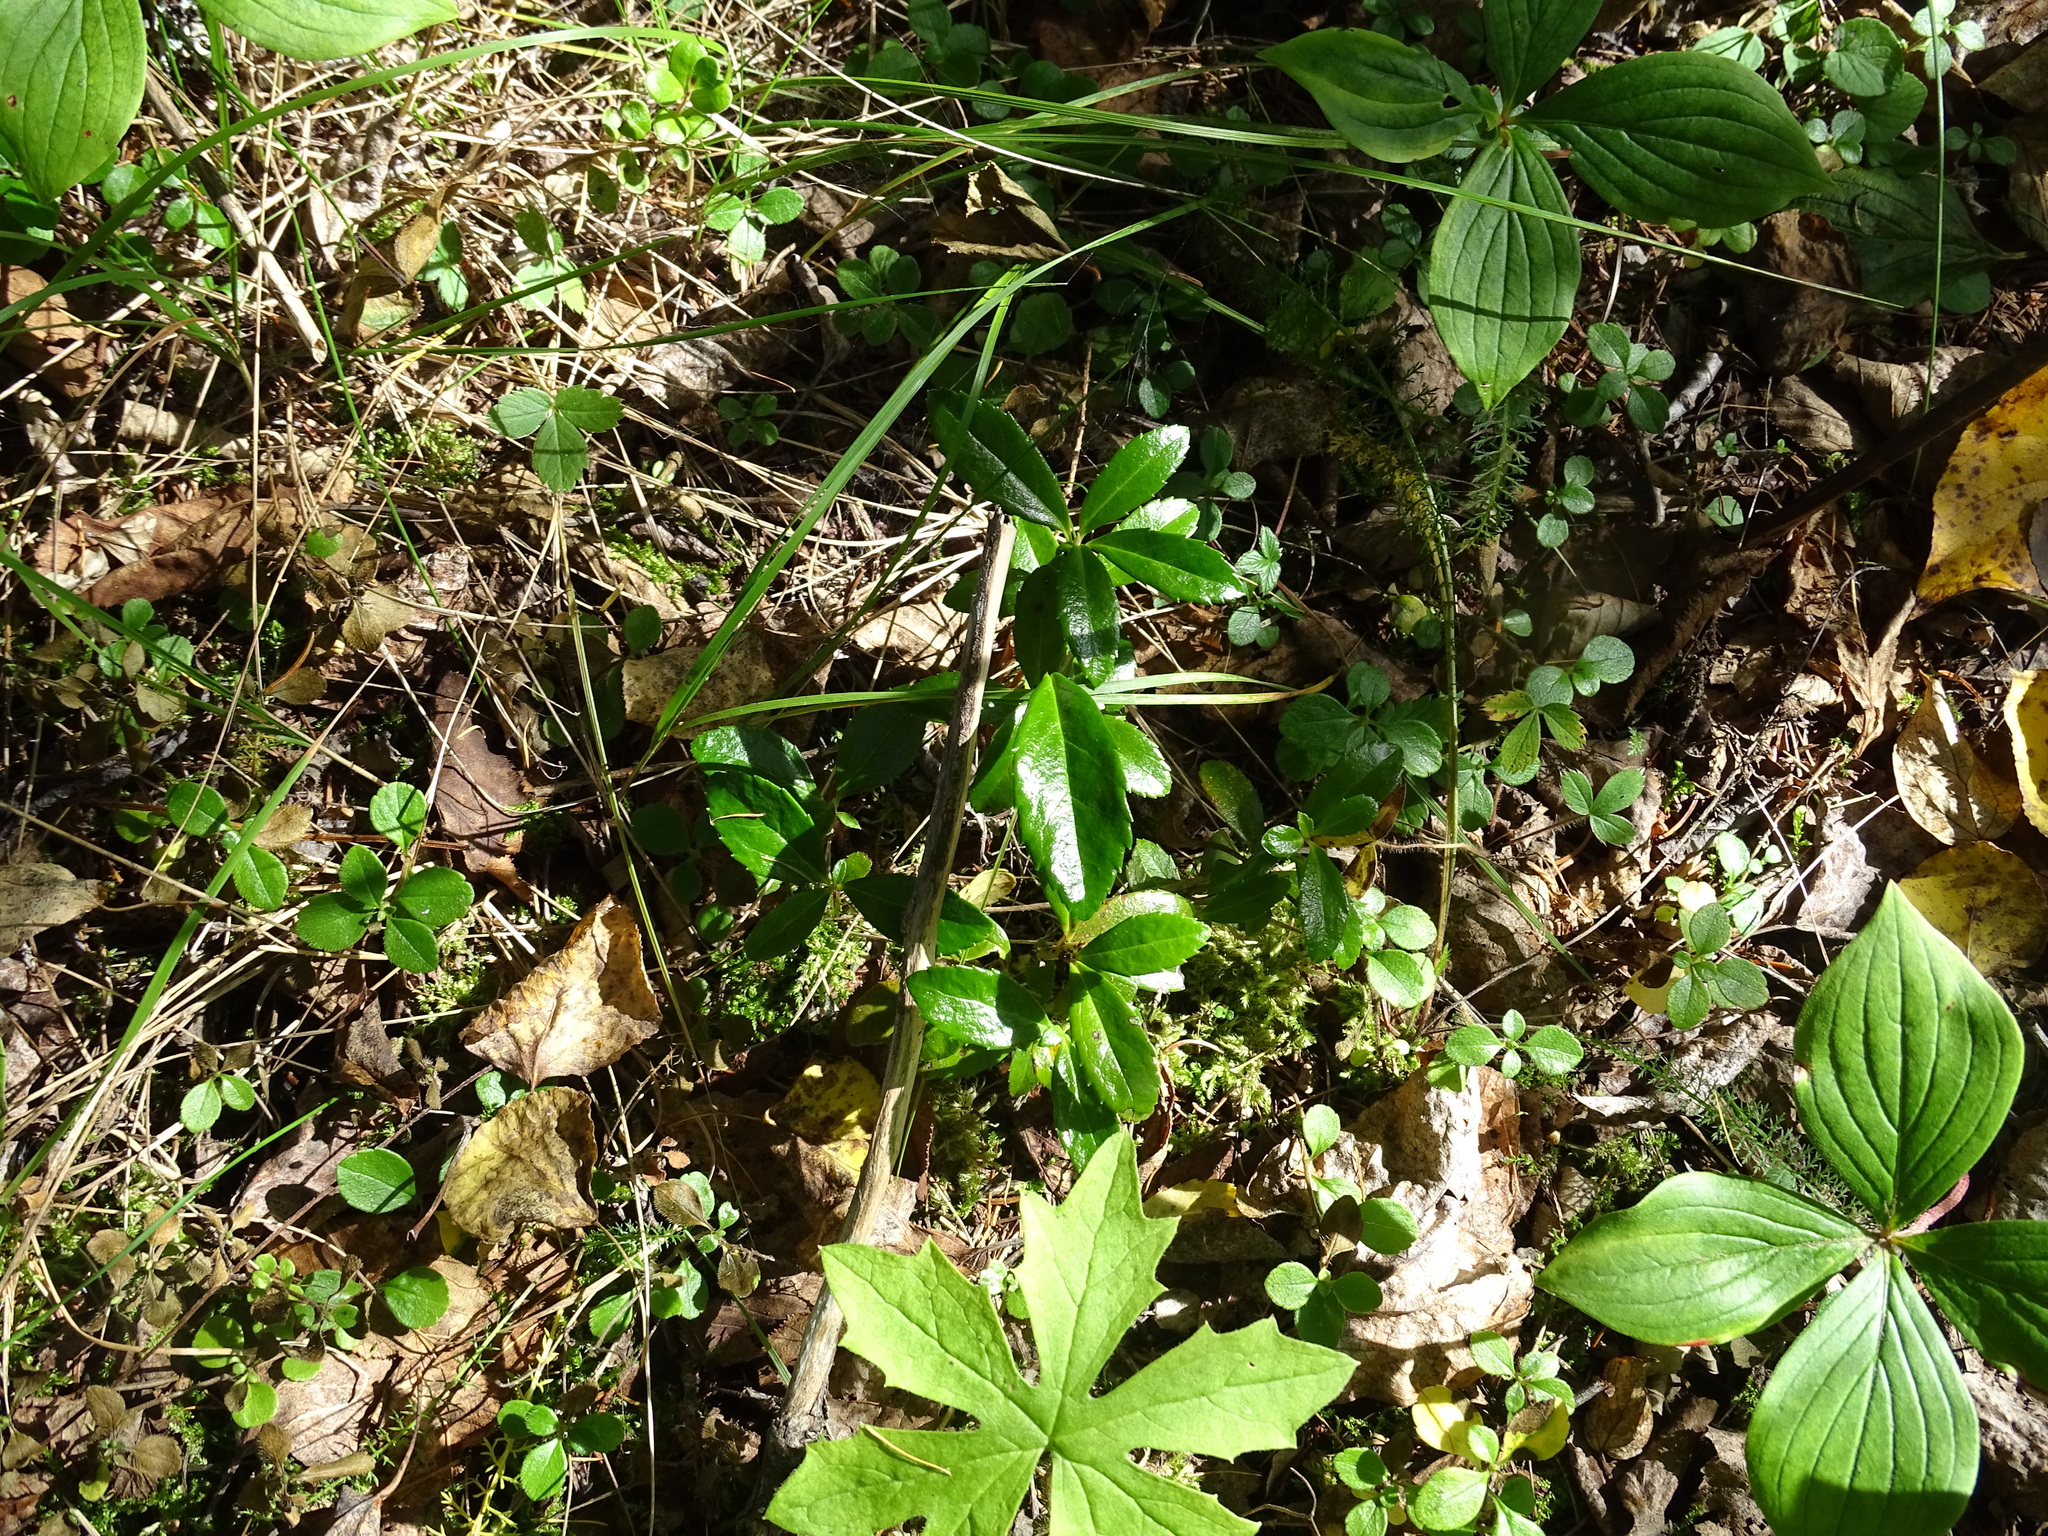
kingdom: Plantae
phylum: Tracheophyta
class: Magnoliopsida
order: Ericales
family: Ericaceae
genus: Chimaphila
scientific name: Chimaphila umbellata
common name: Pipsissewa
